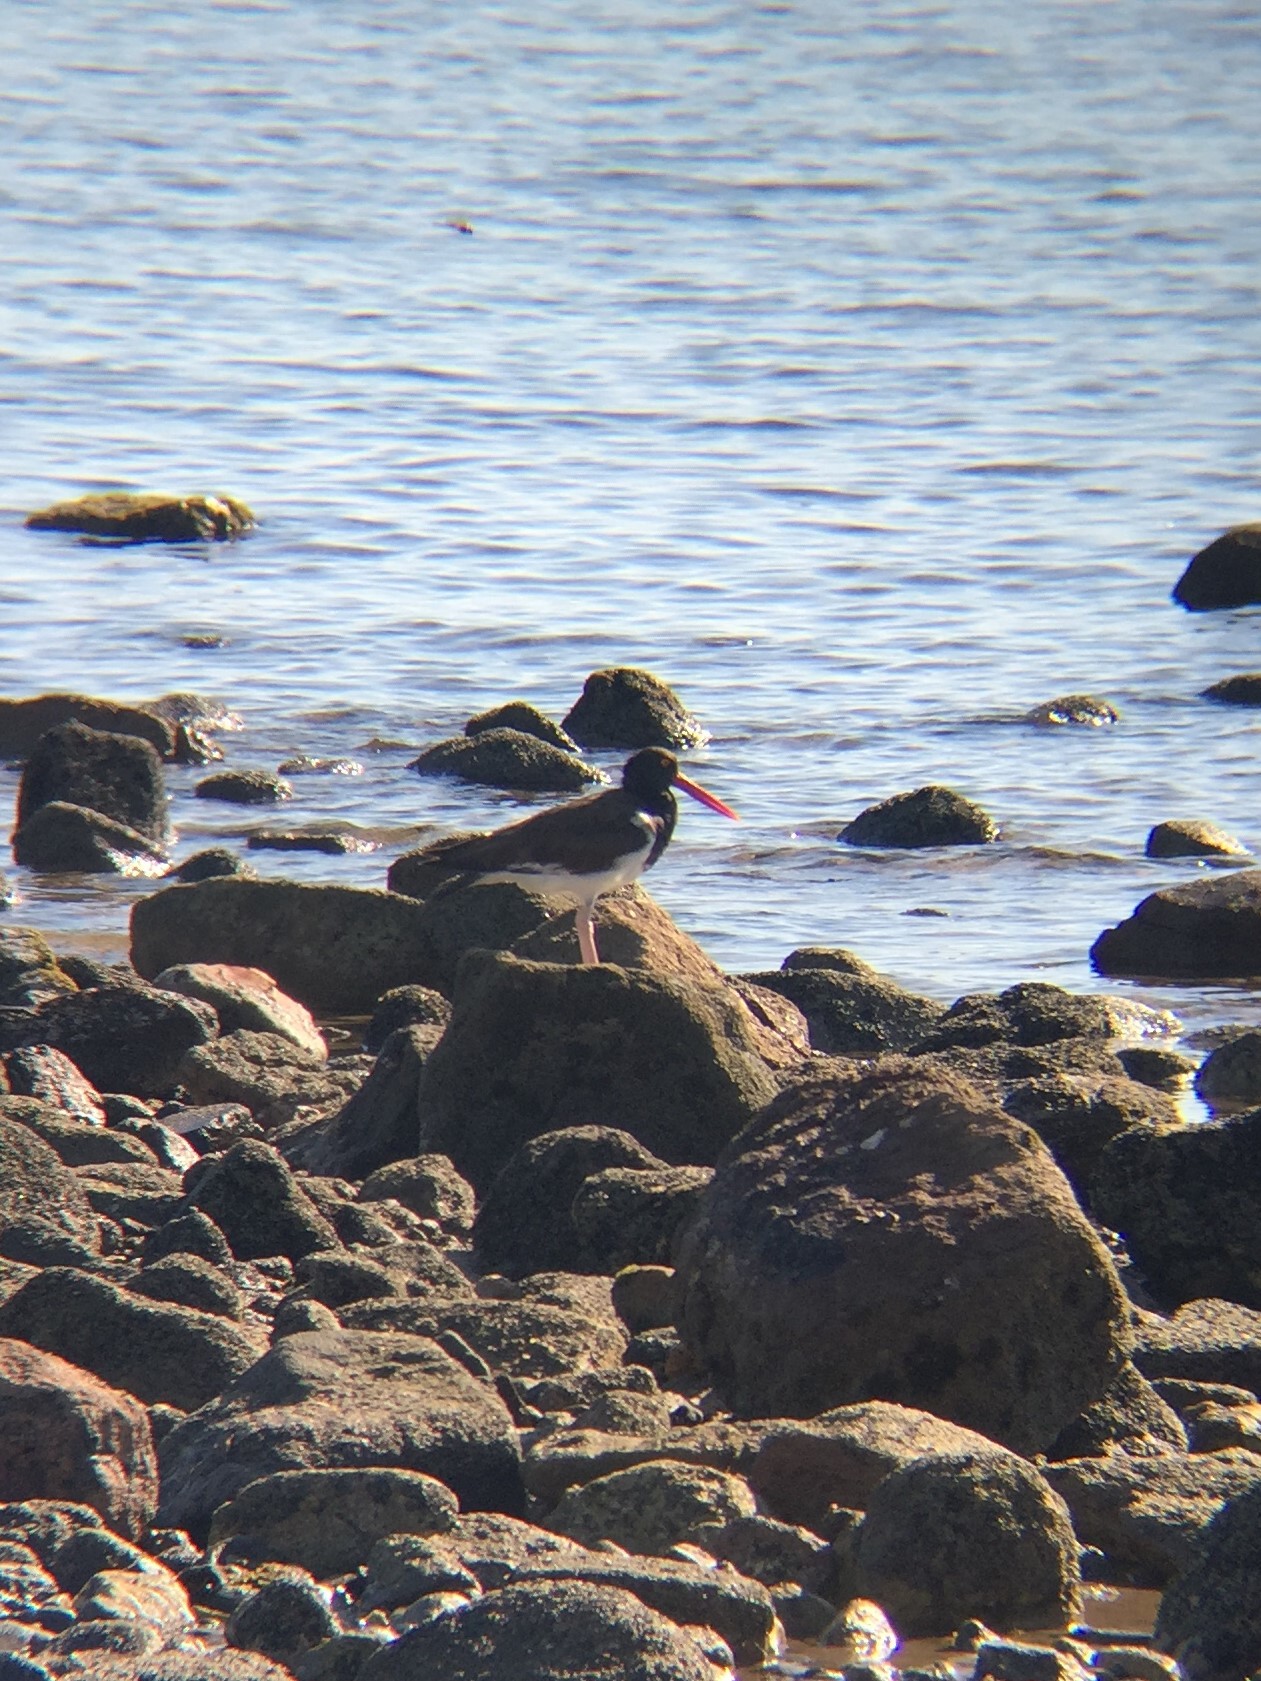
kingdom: Animalia
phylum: Chordata
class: Aves
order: Charadriiformes
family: Haematopodidae
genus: Haematopus
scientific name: Haematopus palliatus
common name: American oystercatcher
